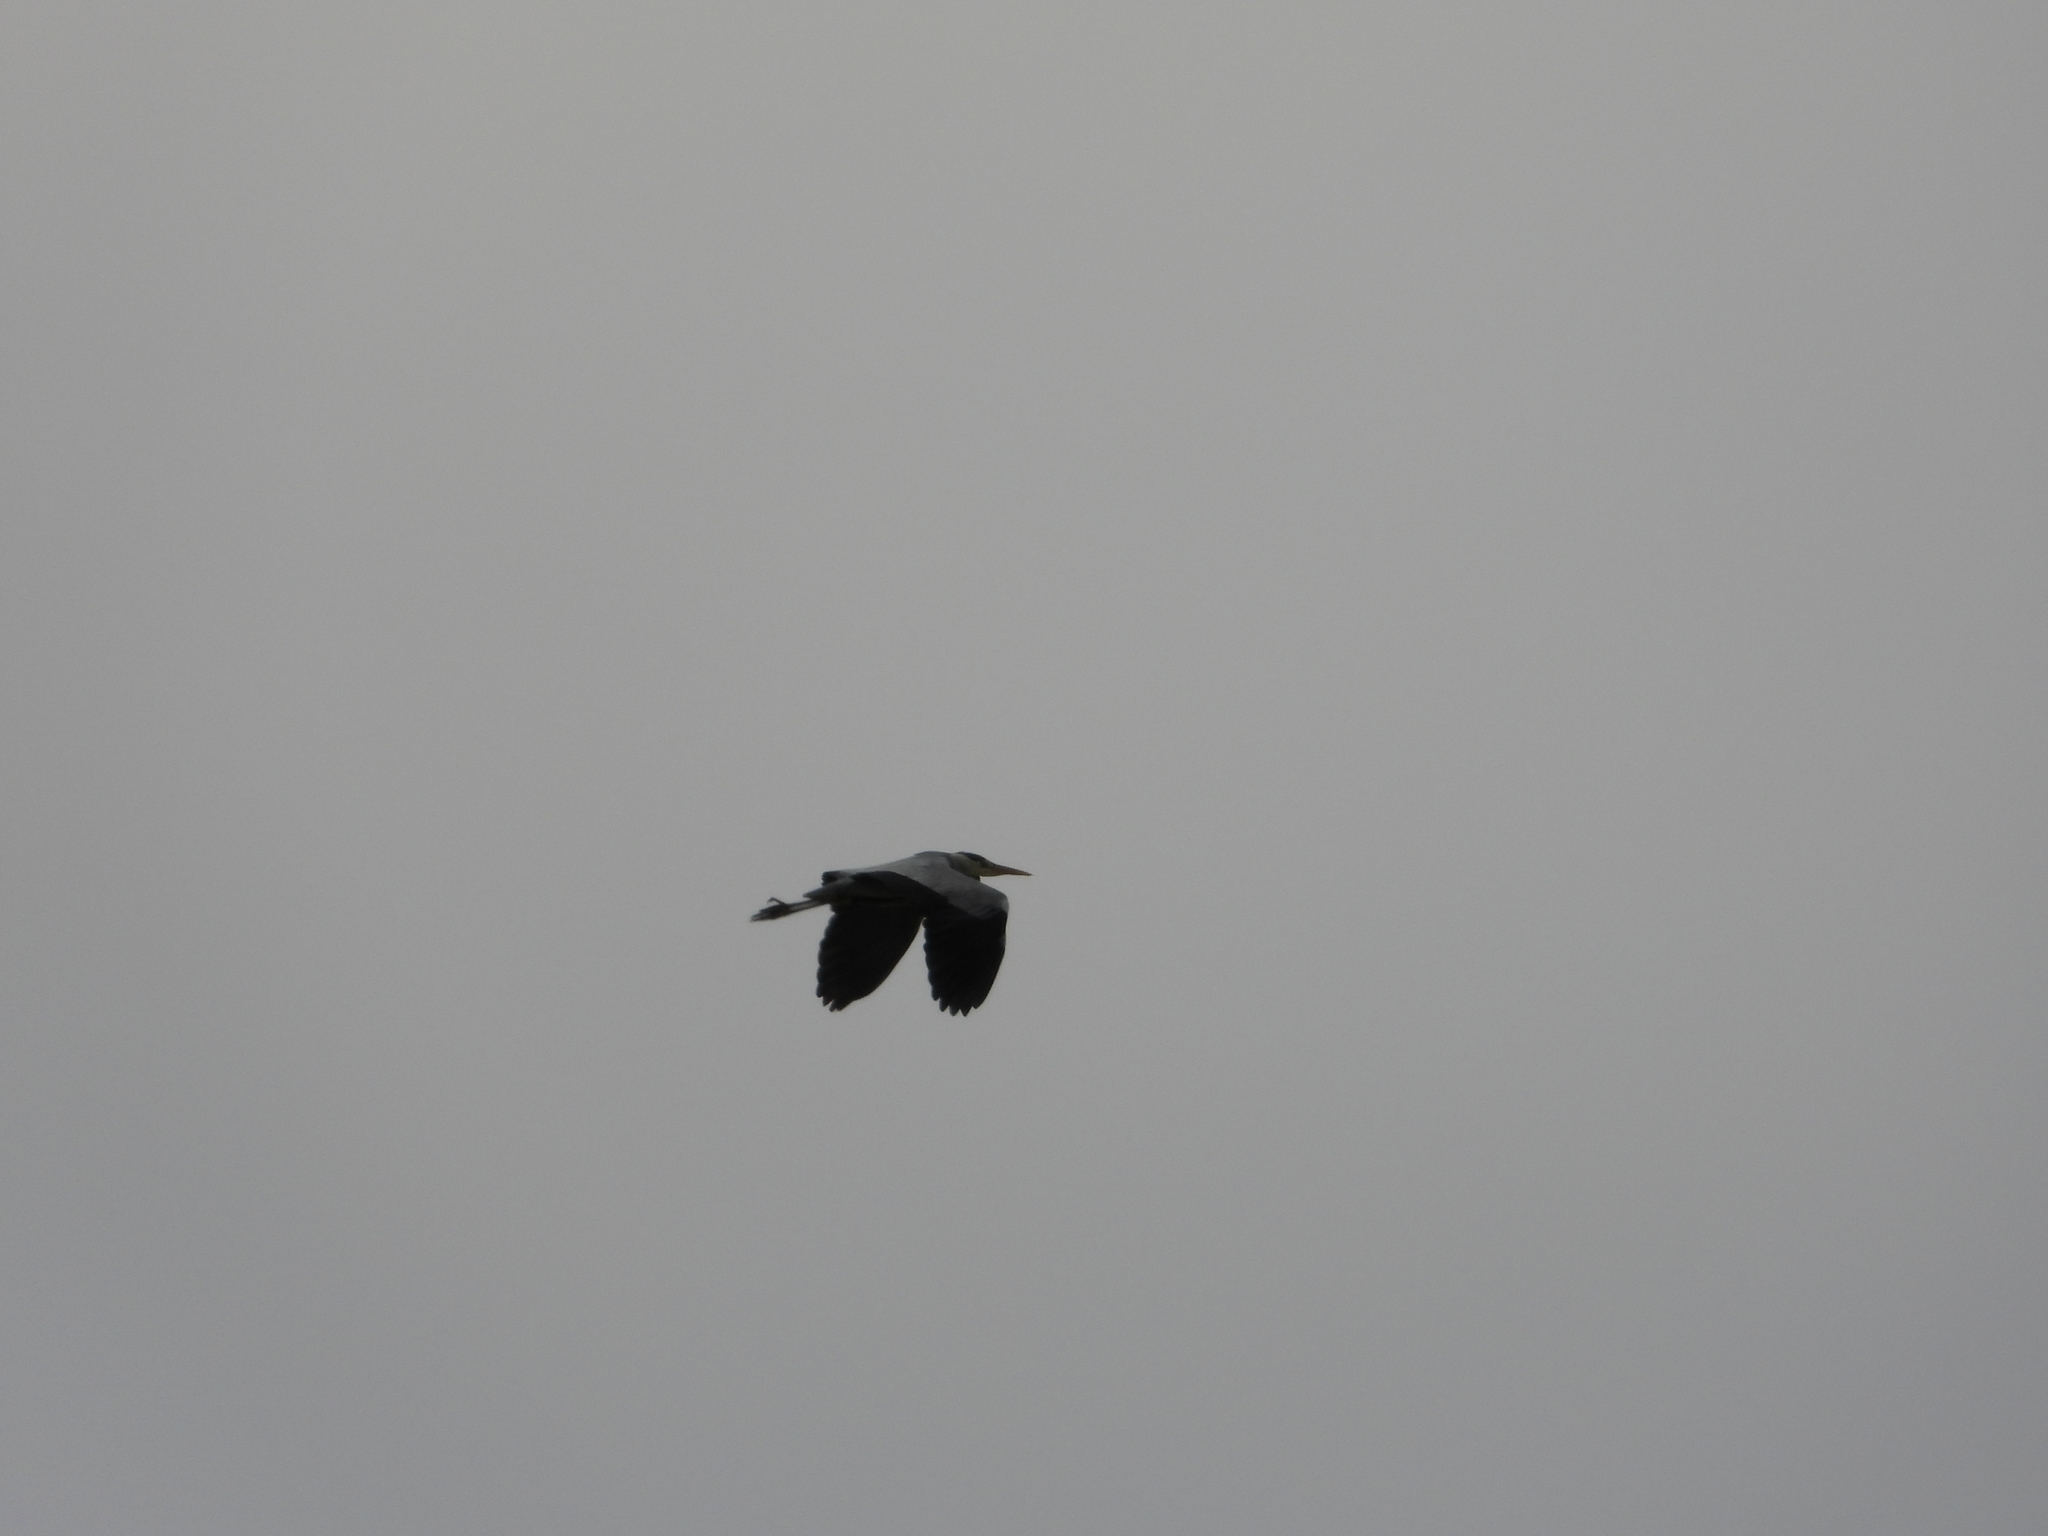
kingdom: Animalia
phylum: Chordata
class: Aves
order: Pelecaniformes
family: Ardeidae
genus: Ardea
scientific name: Ardea cinerea
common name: Grey heron
